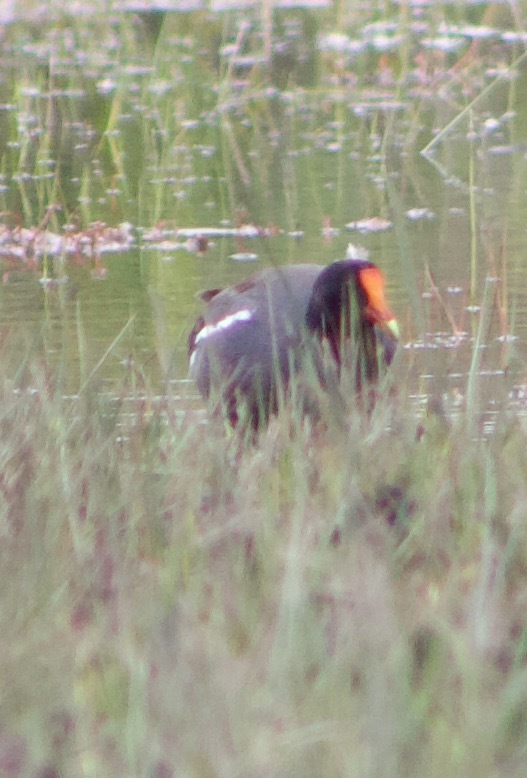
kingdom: Animalia
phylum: Chordata
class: Aves
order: Gruiformes
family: Rallidae
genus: Gallinula
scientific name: Gallinula chloropus
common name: Common moorhen
